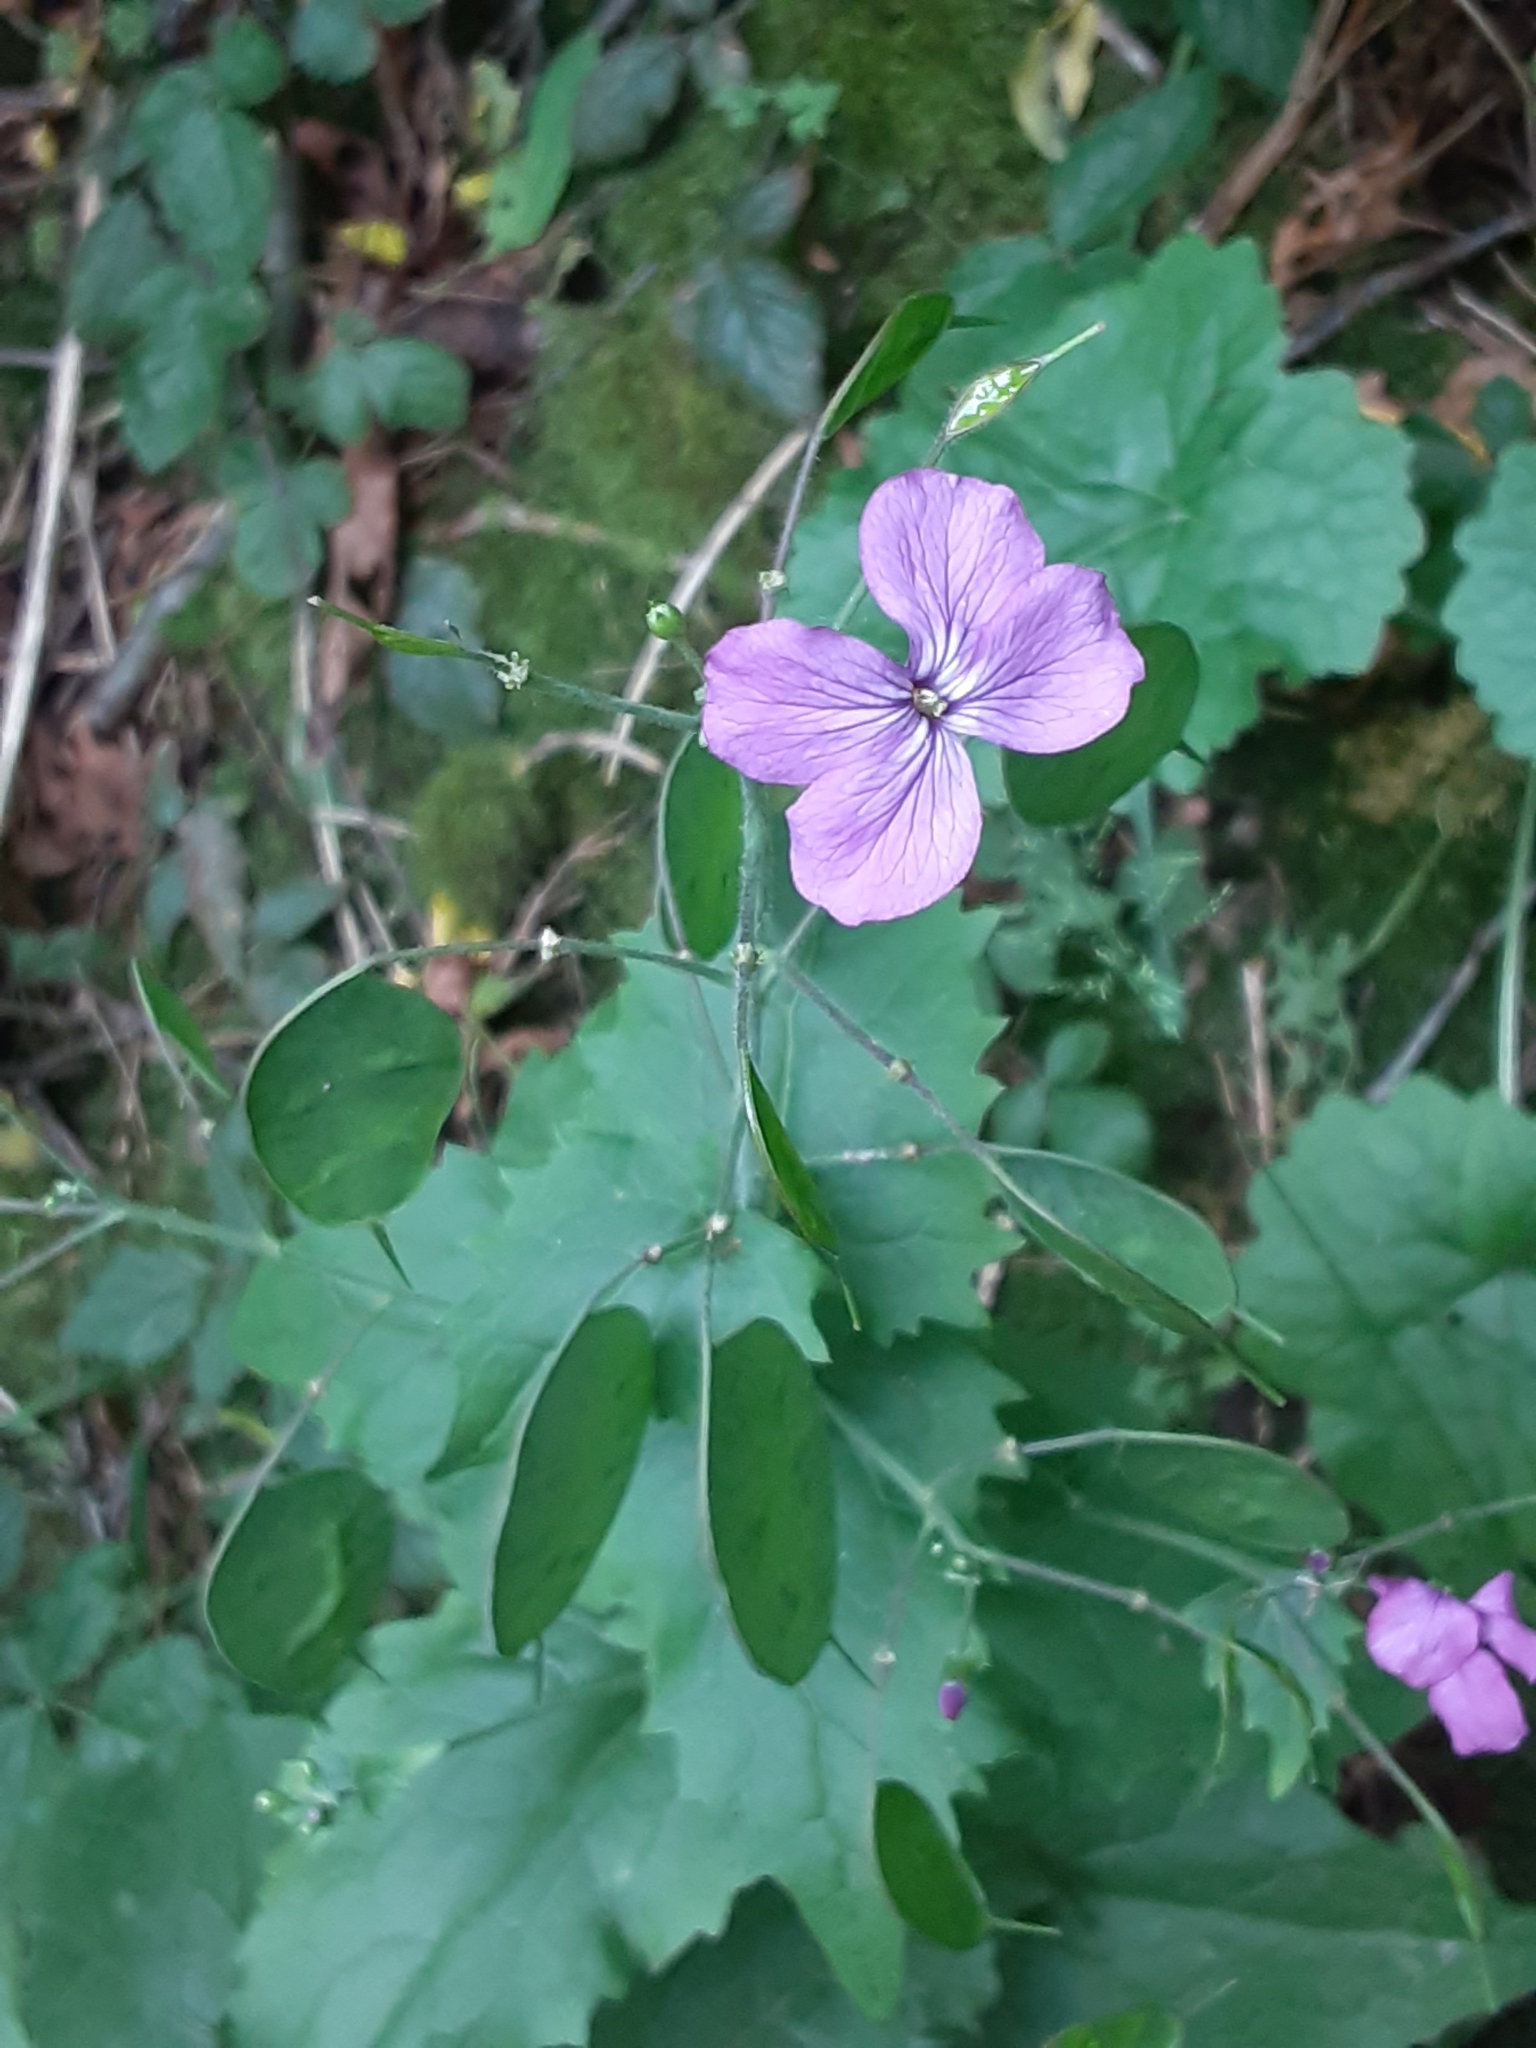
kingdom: Plantae
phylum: Tracheophyta
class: Magnoliopsida
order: Brassicales
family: Brassicaceae
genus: Lunaria
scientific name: Lunaria annua
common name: Honesty
